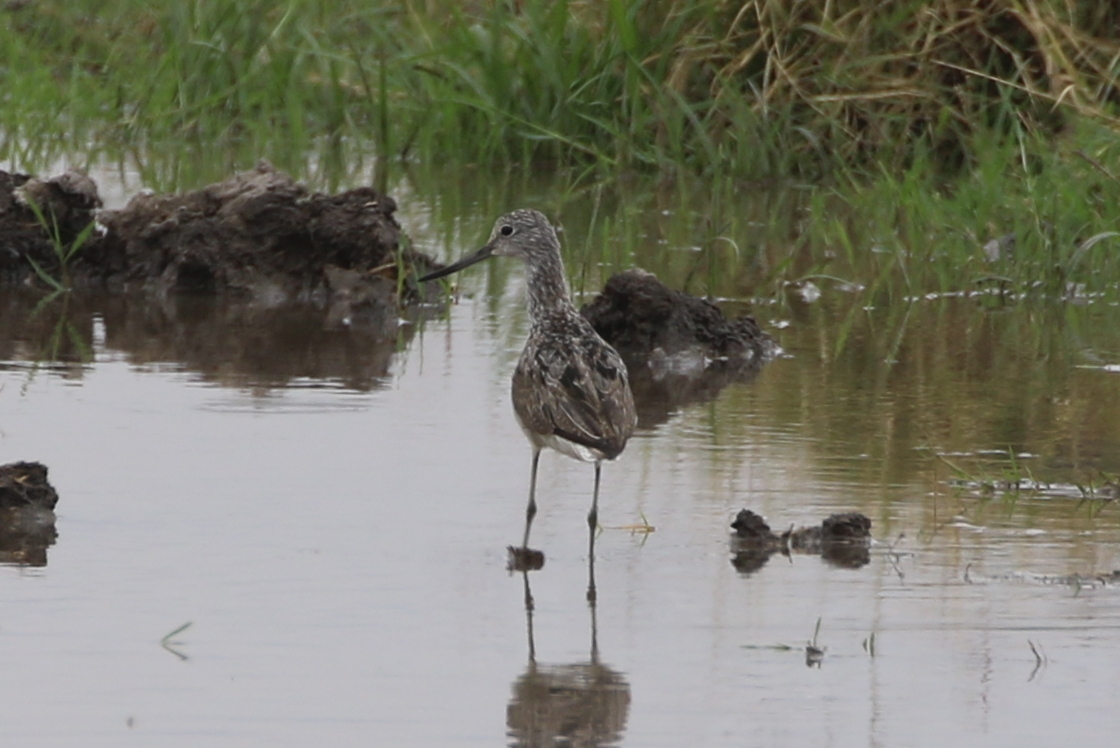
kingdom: Animalia
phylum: Chordata
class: Aves
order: Charadriiformes
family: Scolopacidae
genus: Tringa
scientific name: Tringa nebularia
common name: Common greenshank
